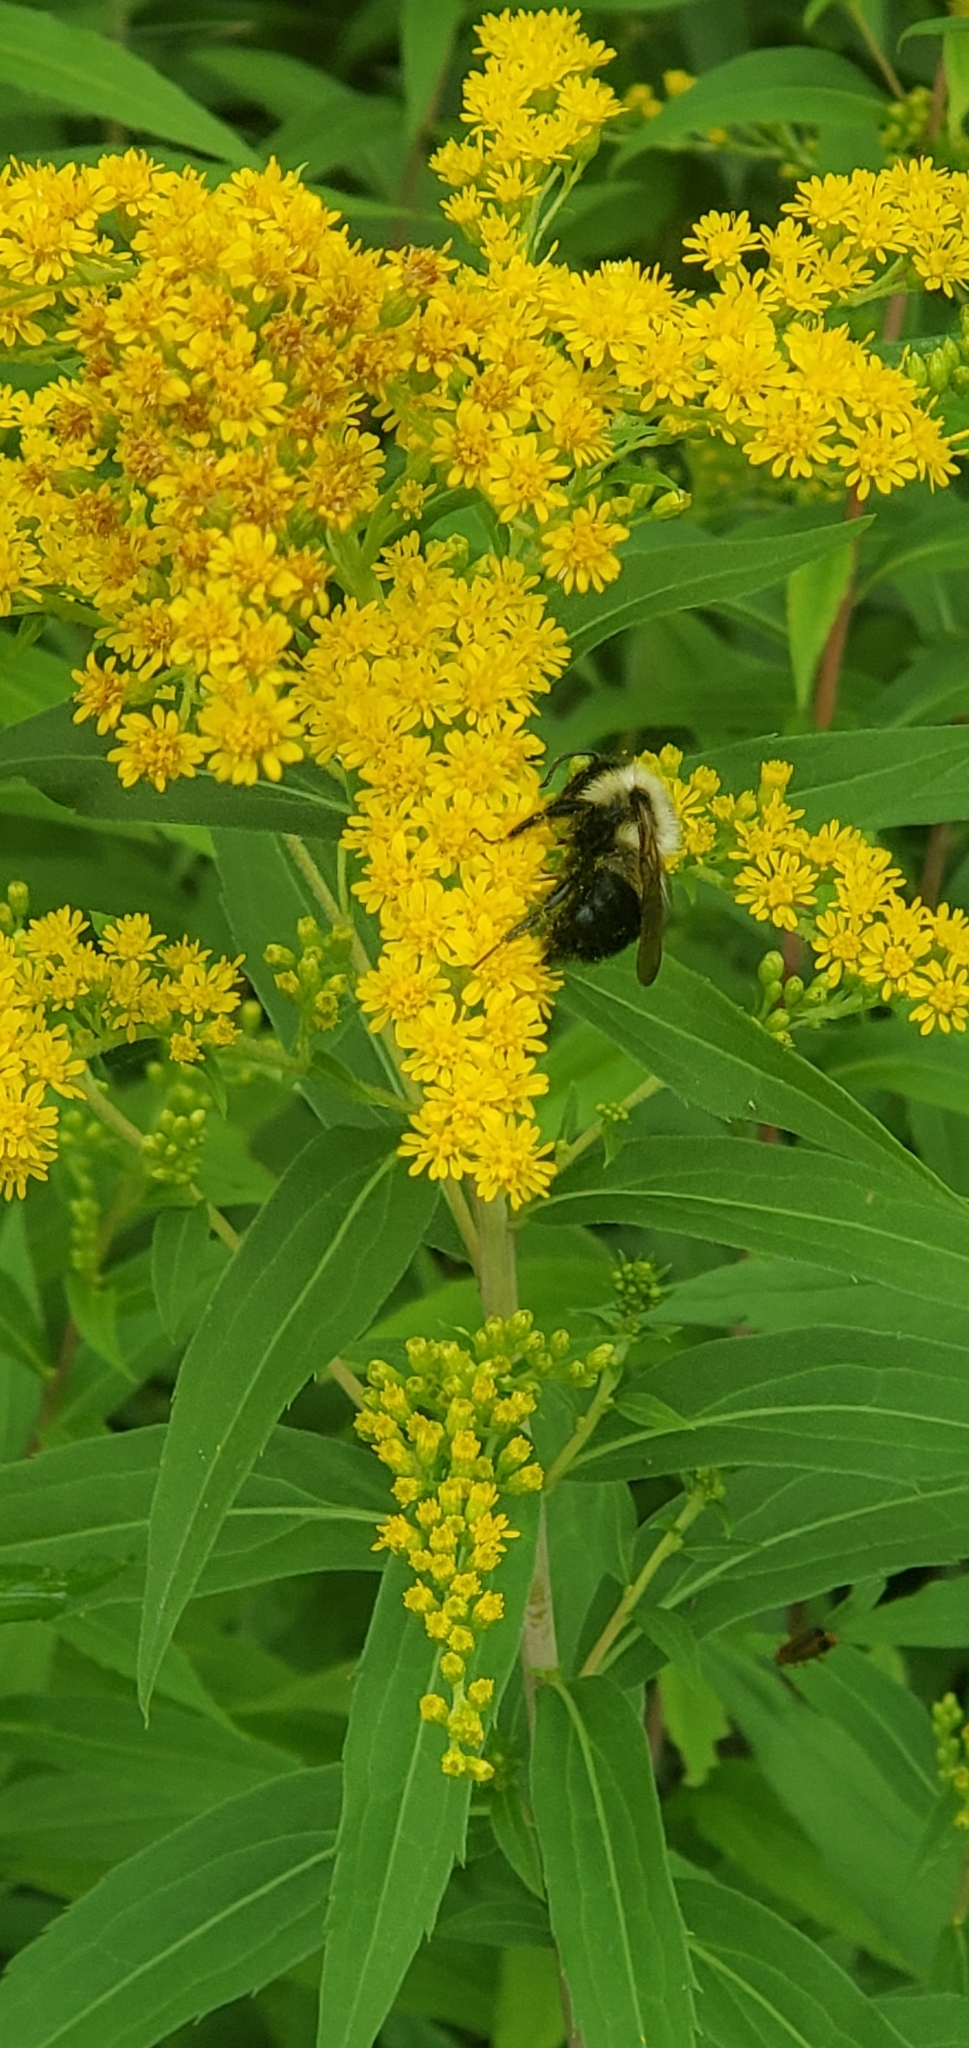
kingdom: Animalia
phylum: Arthropoda
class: Insecta
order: Hymenoptera
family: Apidae
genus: Bombus
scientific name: Bombus impatiens
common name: Common eastern bumble bee
